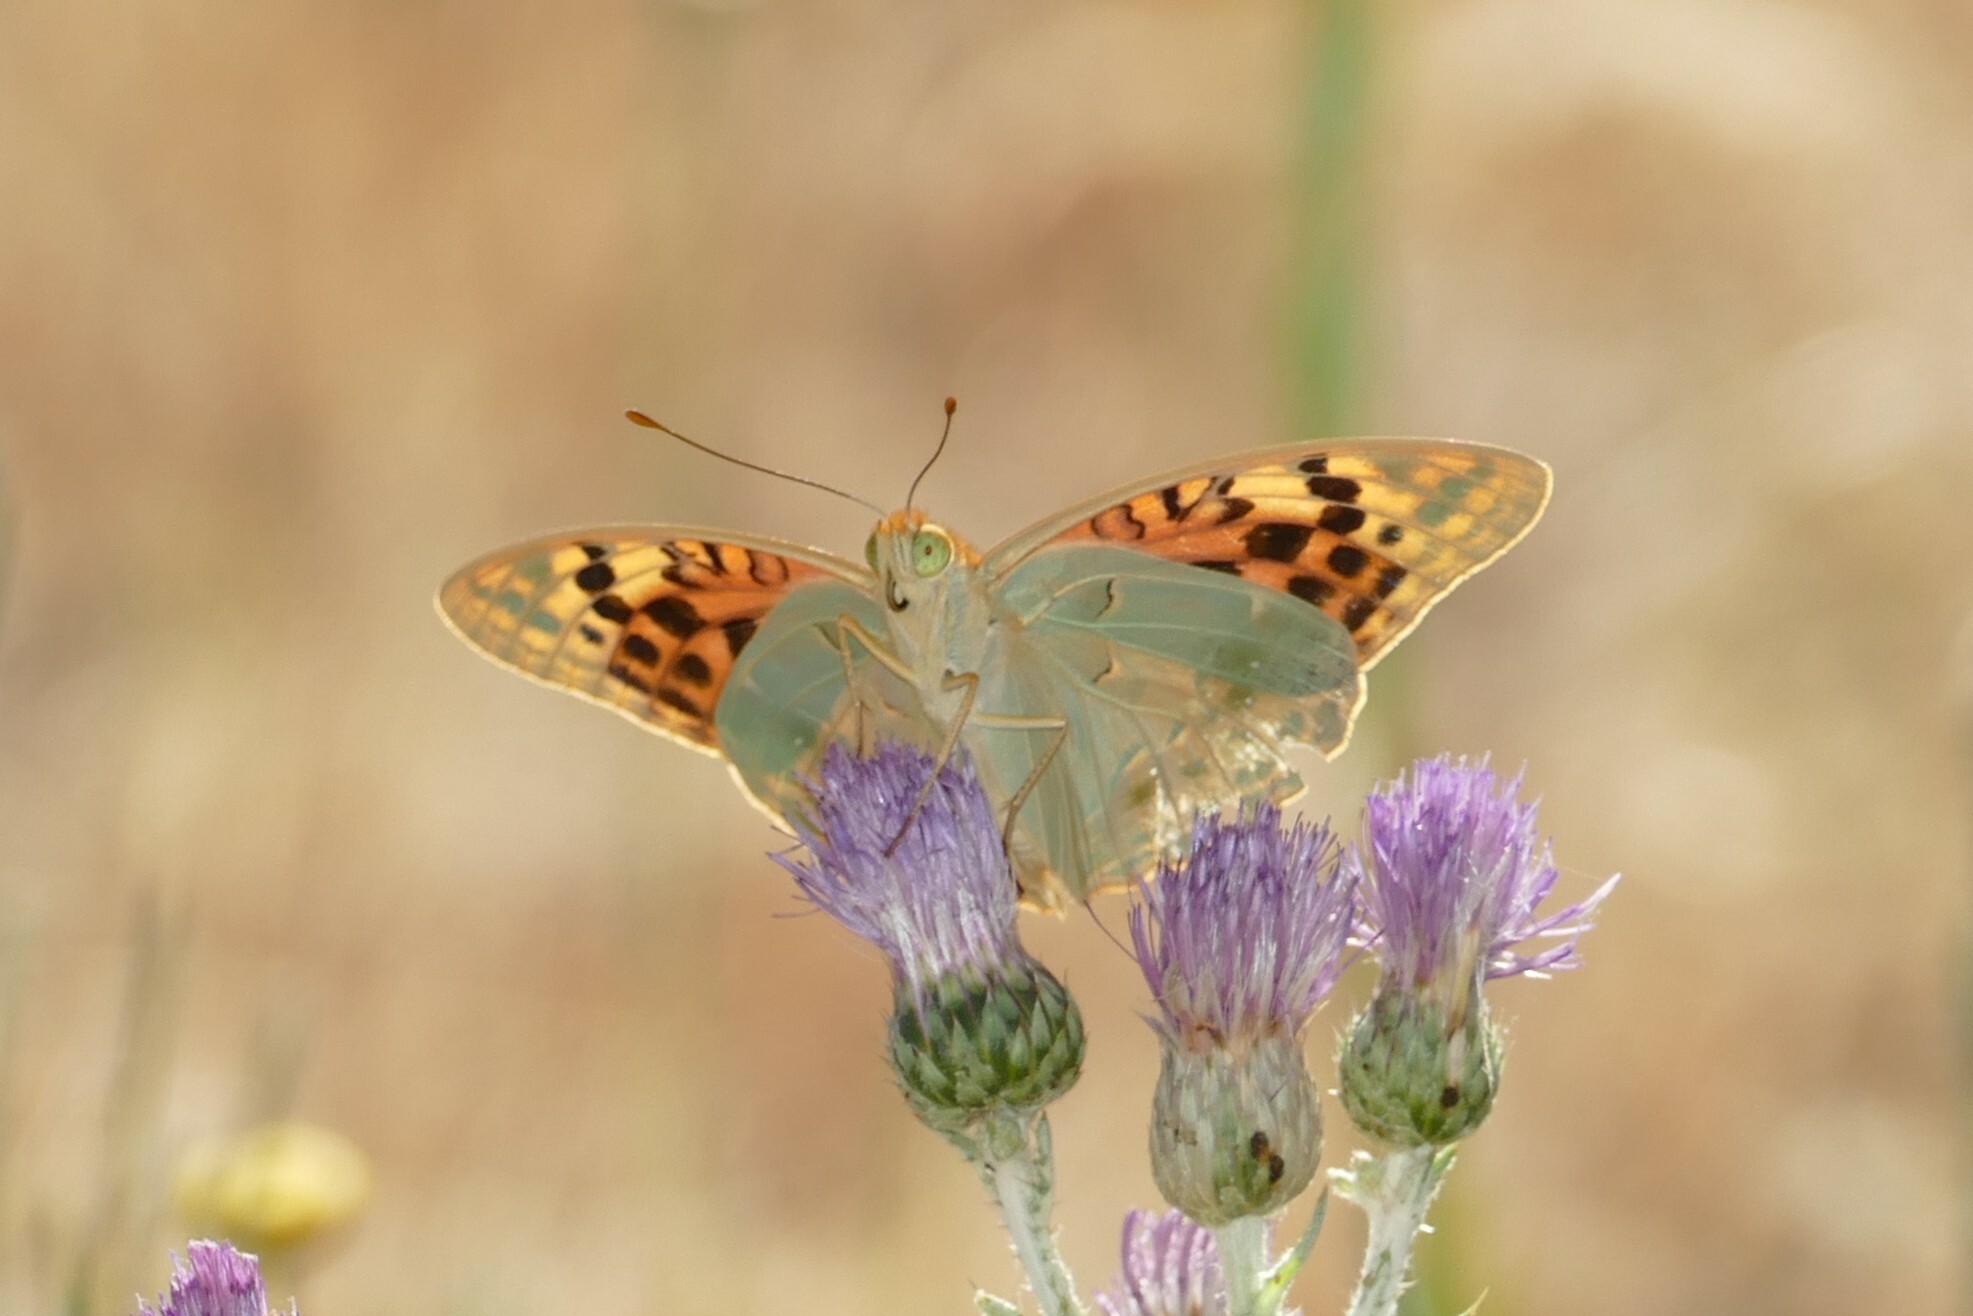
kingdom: Animalia
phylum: Arthropoda
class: Insecta
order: Lepidoptera
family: Nymphalidae
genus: Damora
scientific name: Damora pandora
